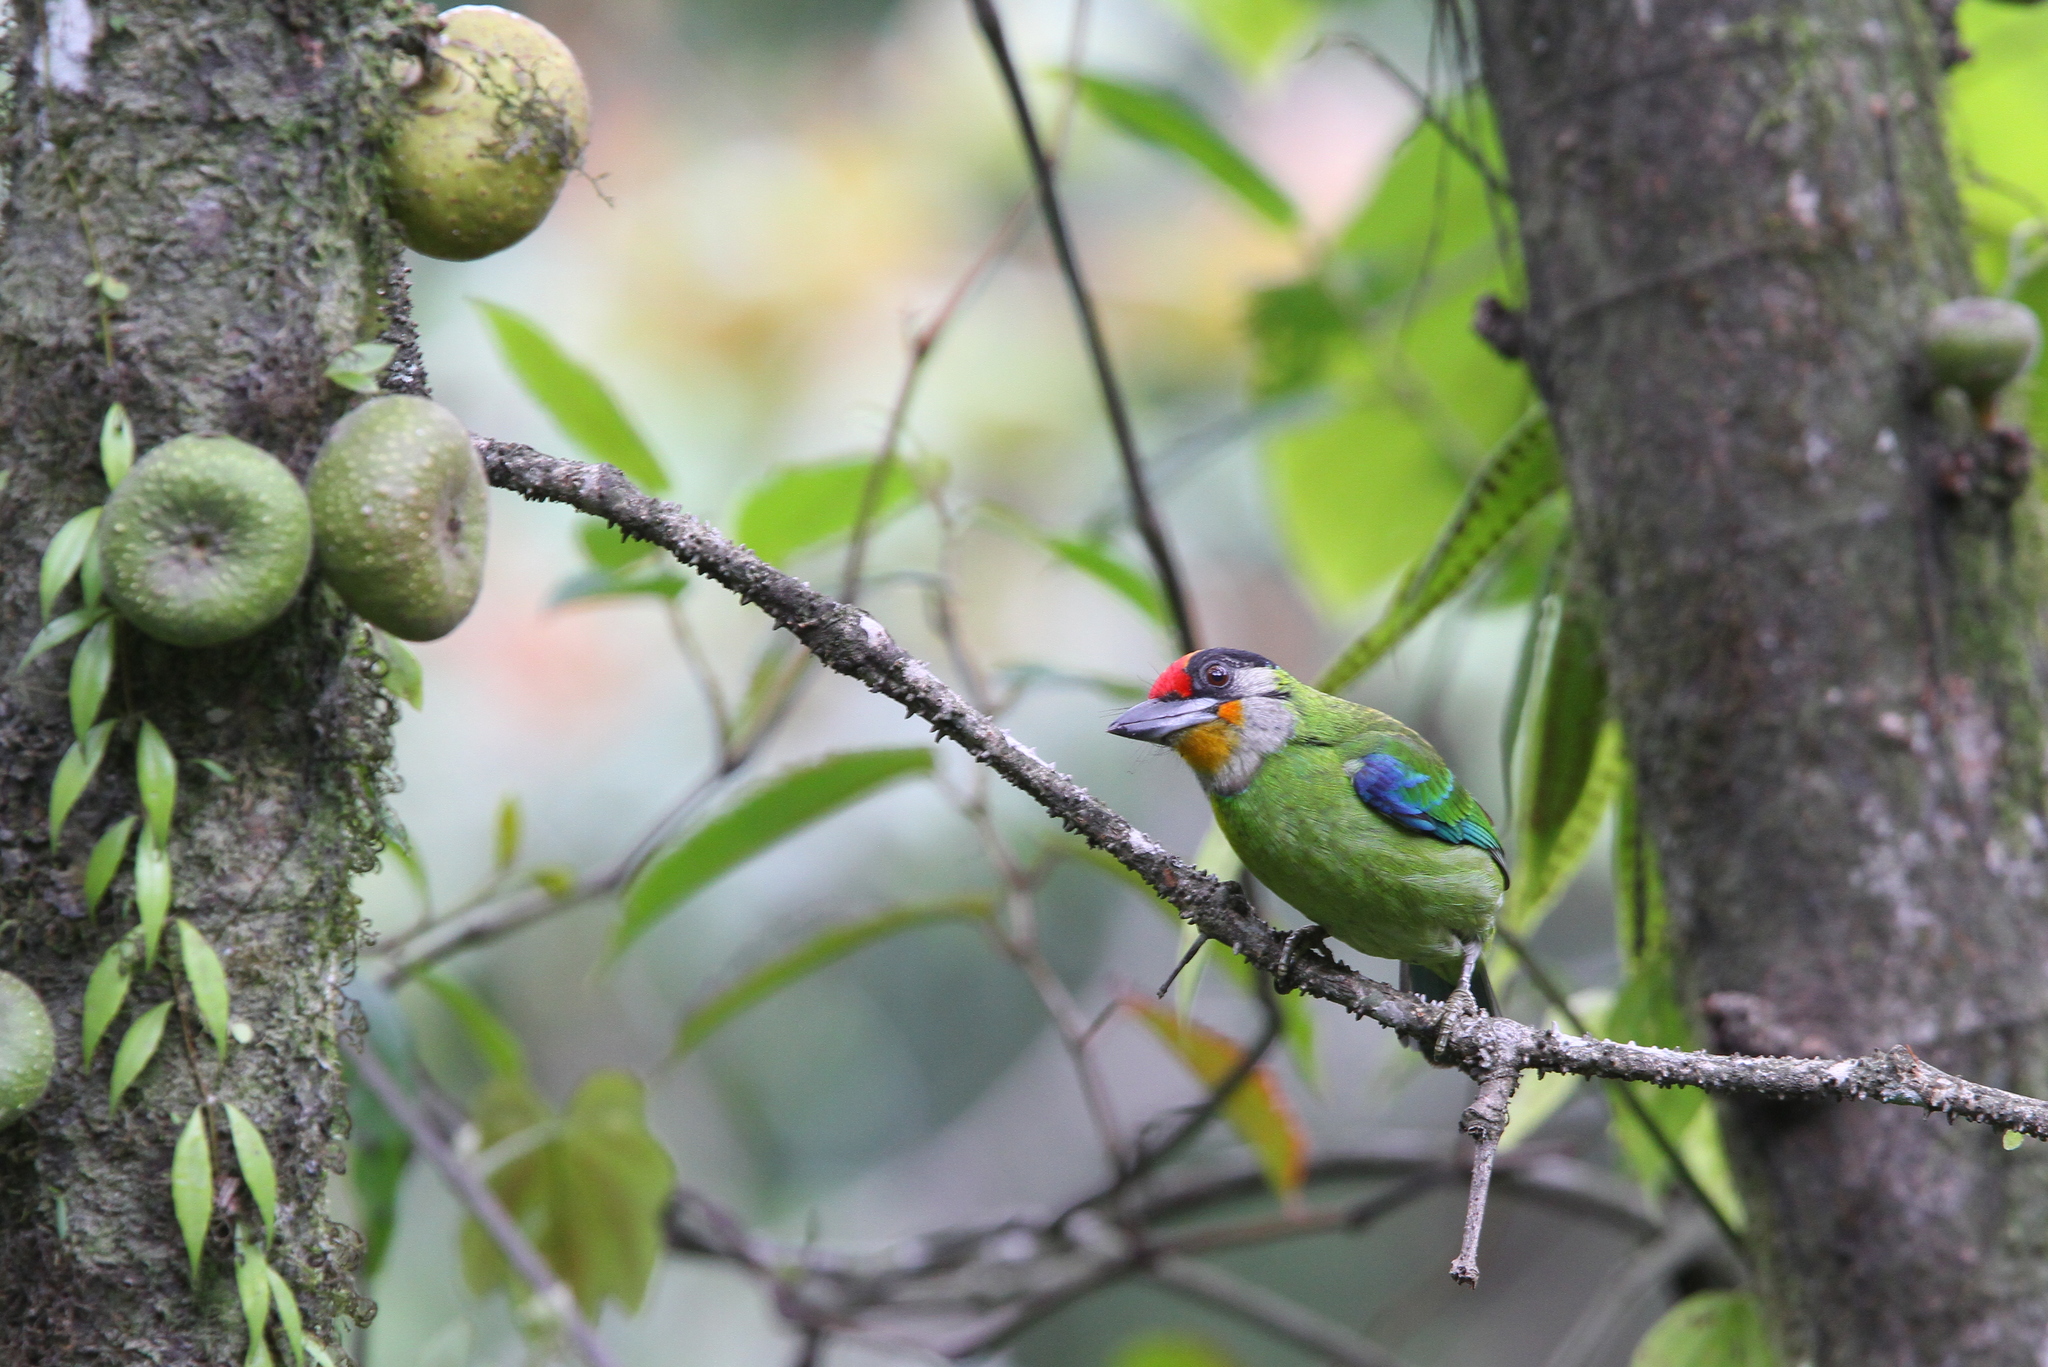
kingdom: Animalia
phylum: Chordata
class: Aves
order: Piciformes
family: Megalaimidae
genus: Psilopogon
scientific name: Psilopogon franklinii
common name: Golden-throated barbet
